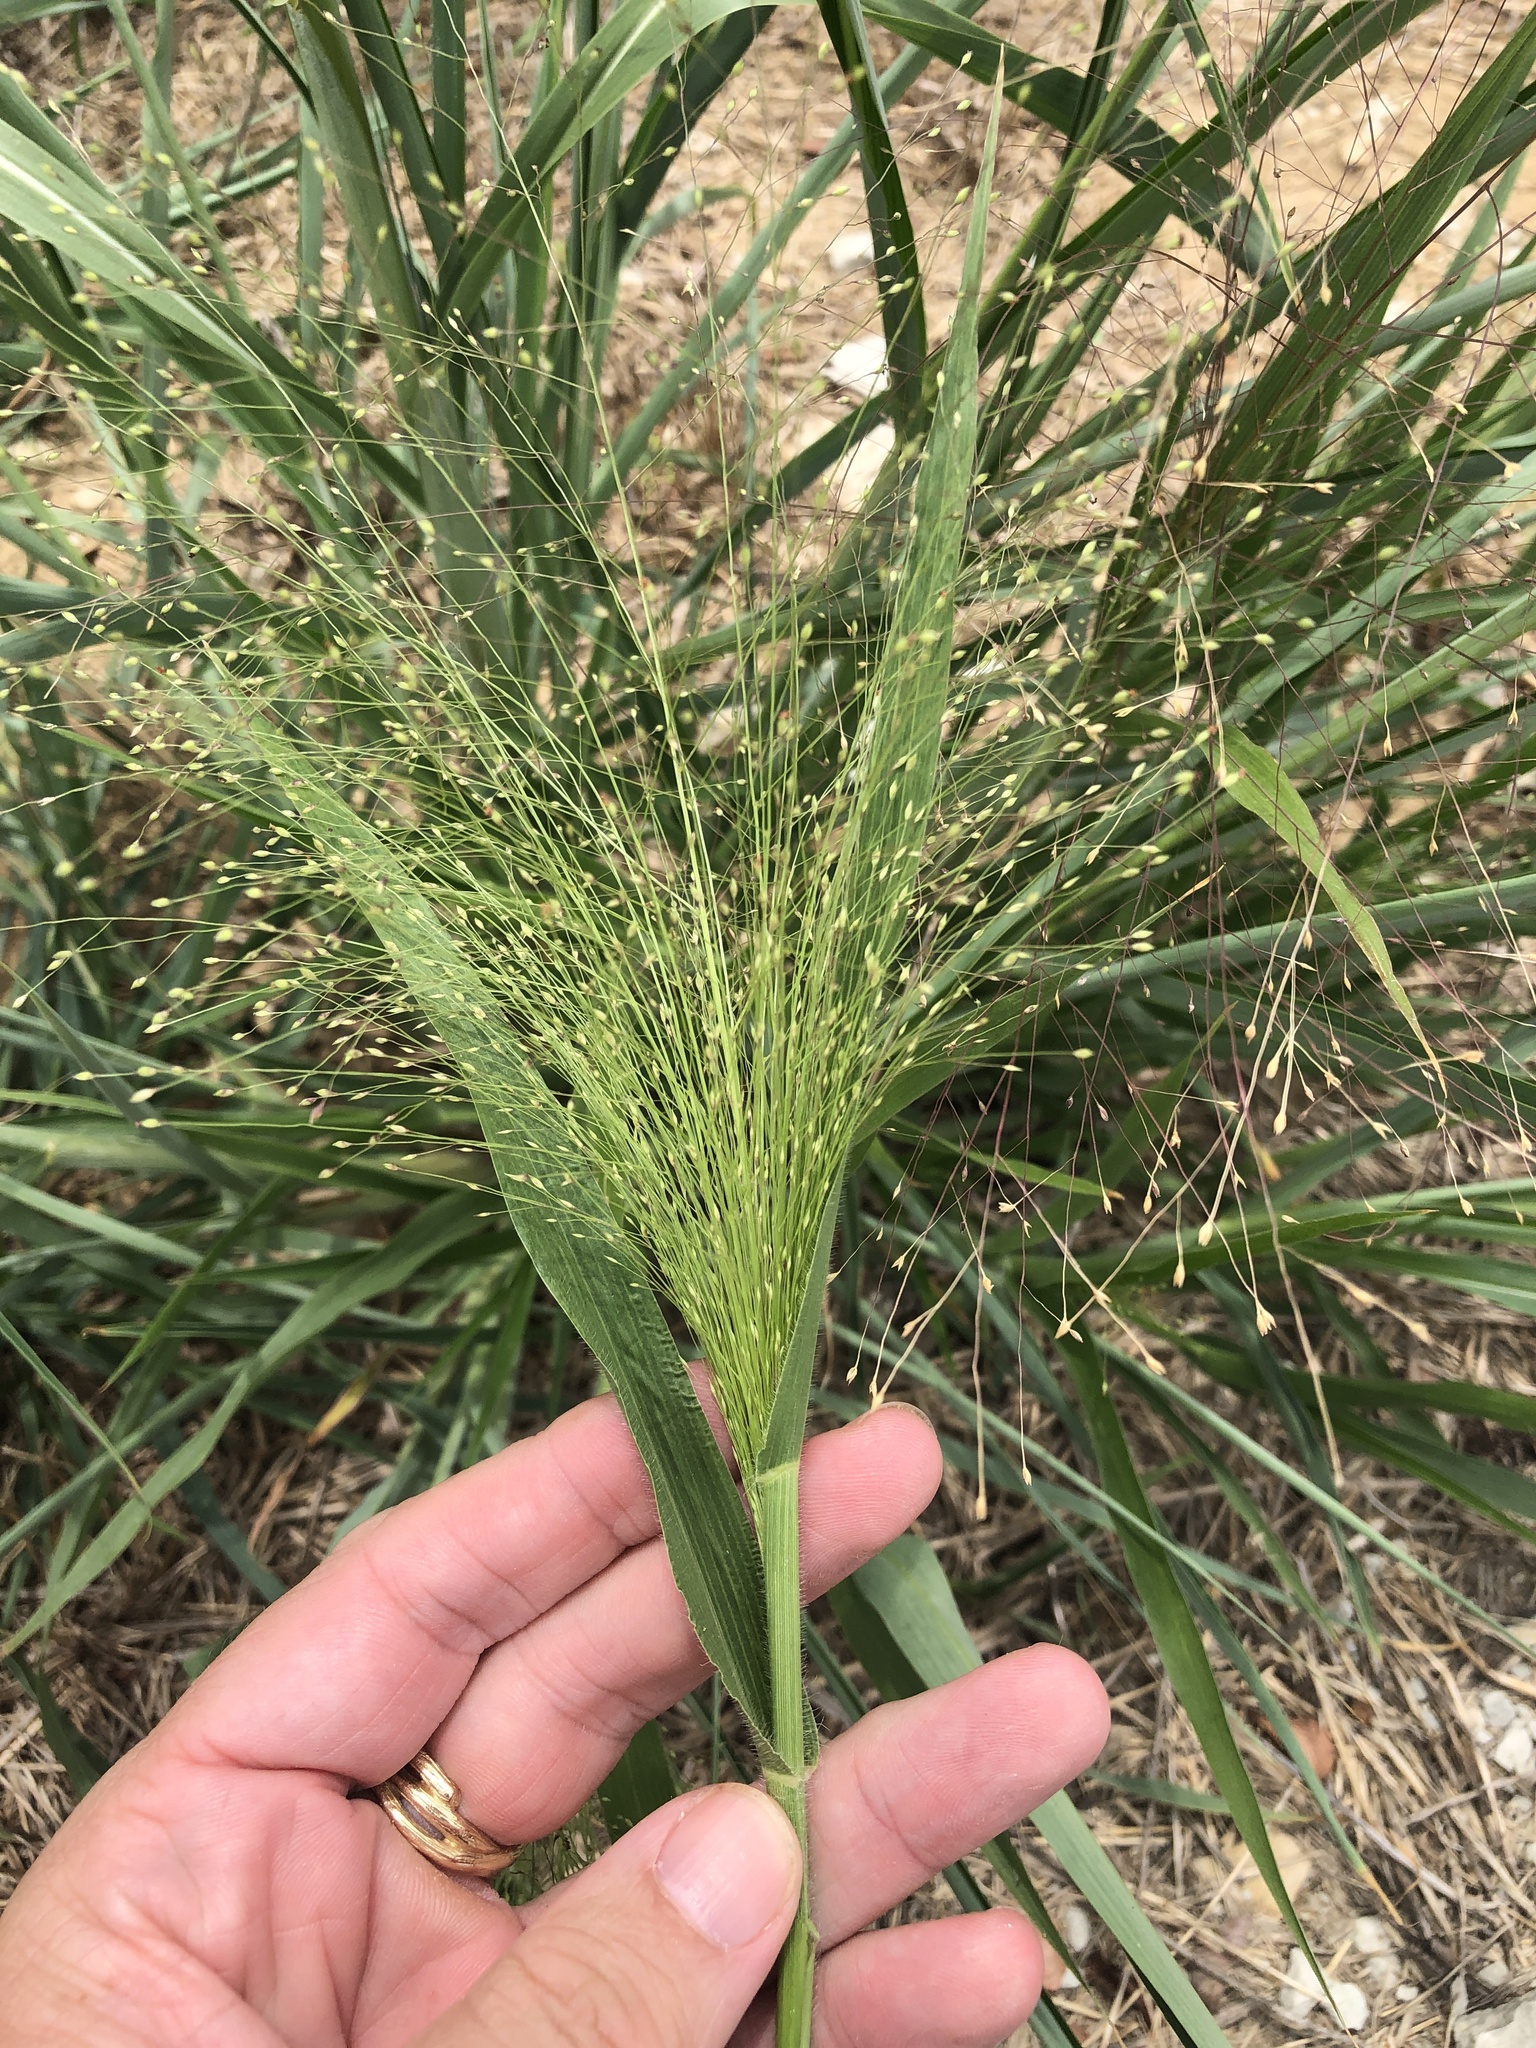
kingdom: Plantae
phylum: Tracheophyta
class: Liliopsida
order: Poales
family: Poaceae
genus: Panicum
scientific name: Panicum capillare
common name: Witch-grass
